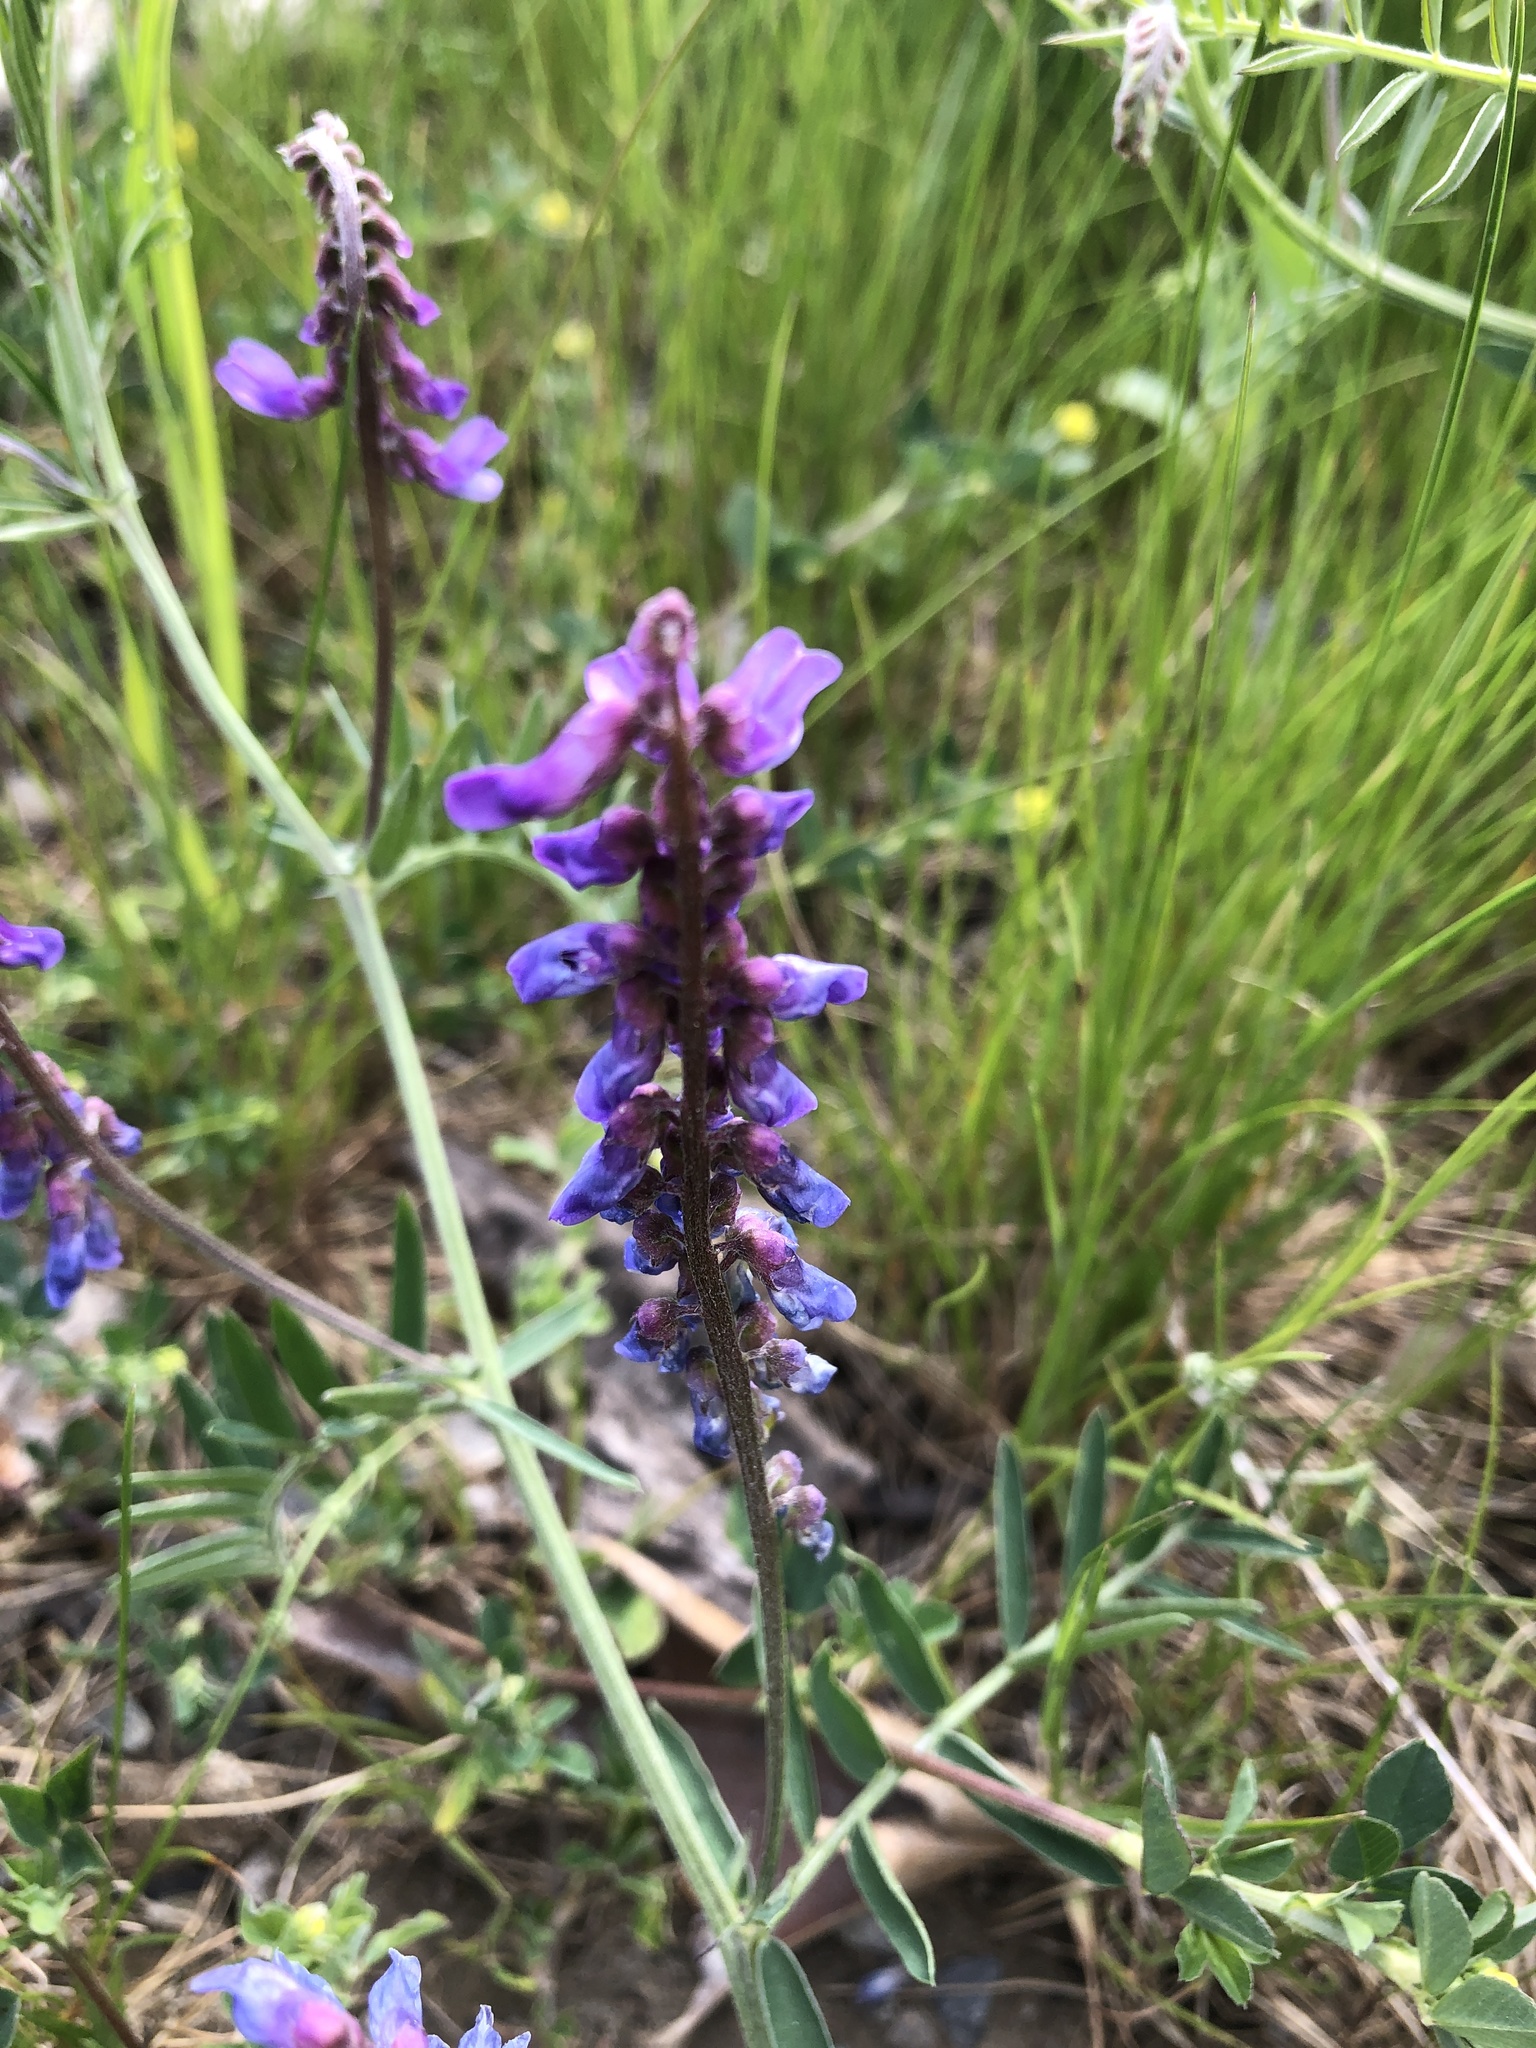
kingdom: Plantae
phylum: Tracheophyta
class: Magnoliopsida
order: Fabales
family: Fabaceae
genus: Vicia
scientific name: Vicia cracca
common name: Bird vetch
